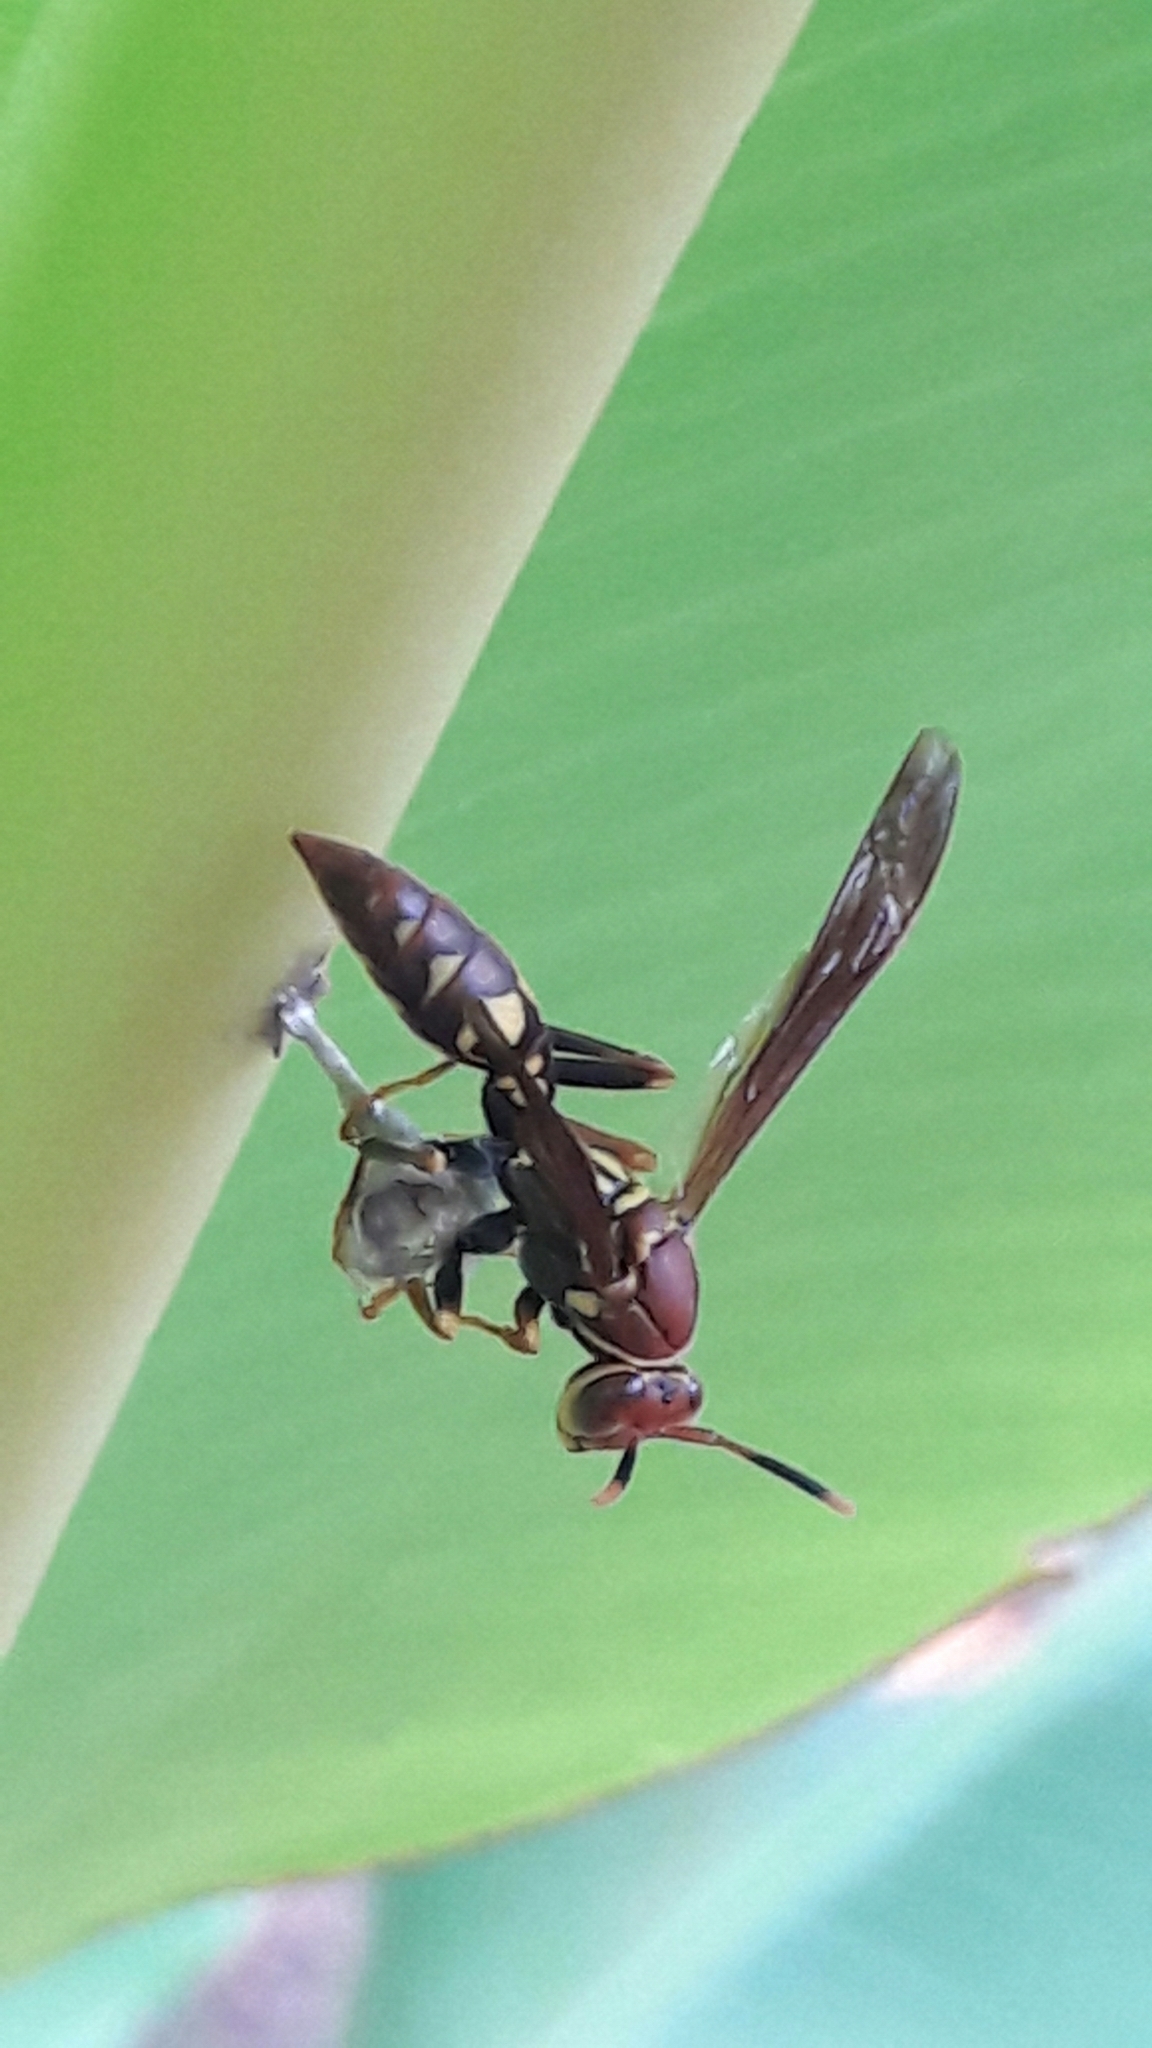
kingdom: Animalia
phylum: Arthropoda
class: Insecta
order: Hymenoptera
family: Eumenidae
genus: Polistes
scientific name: Polistes versicolor
